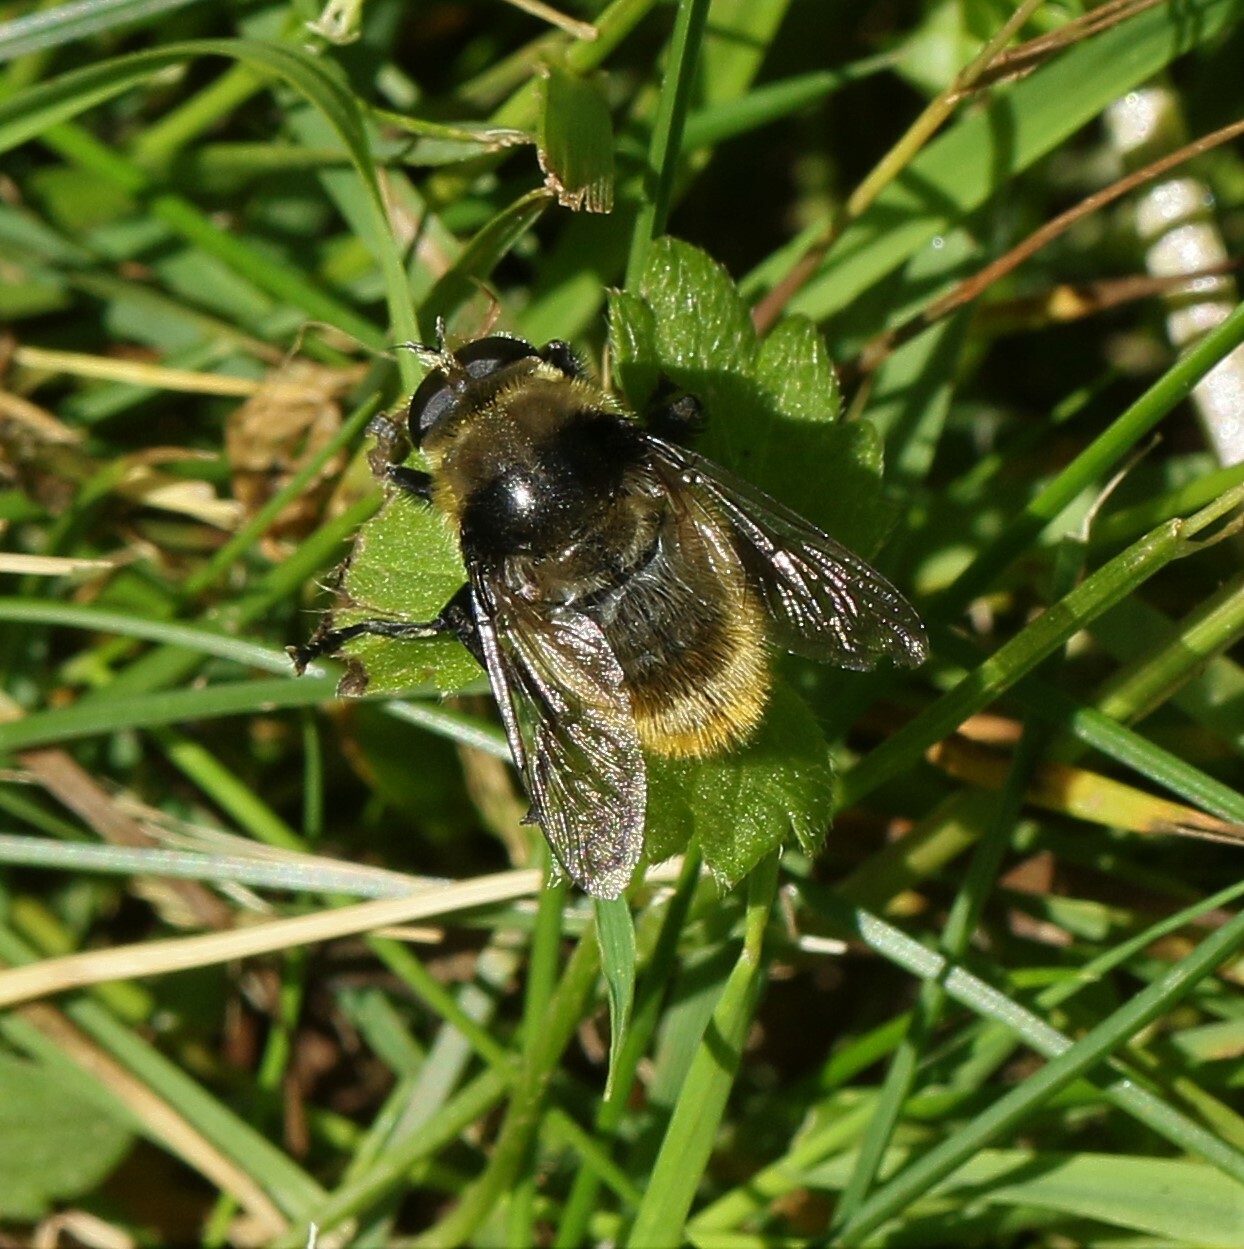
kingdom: Animalia
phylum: Arthropoda
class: Insecta
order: Diptera
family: Syrphidae
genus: Merodon
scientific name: Merodon equestris
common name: Greater bulb-fly
